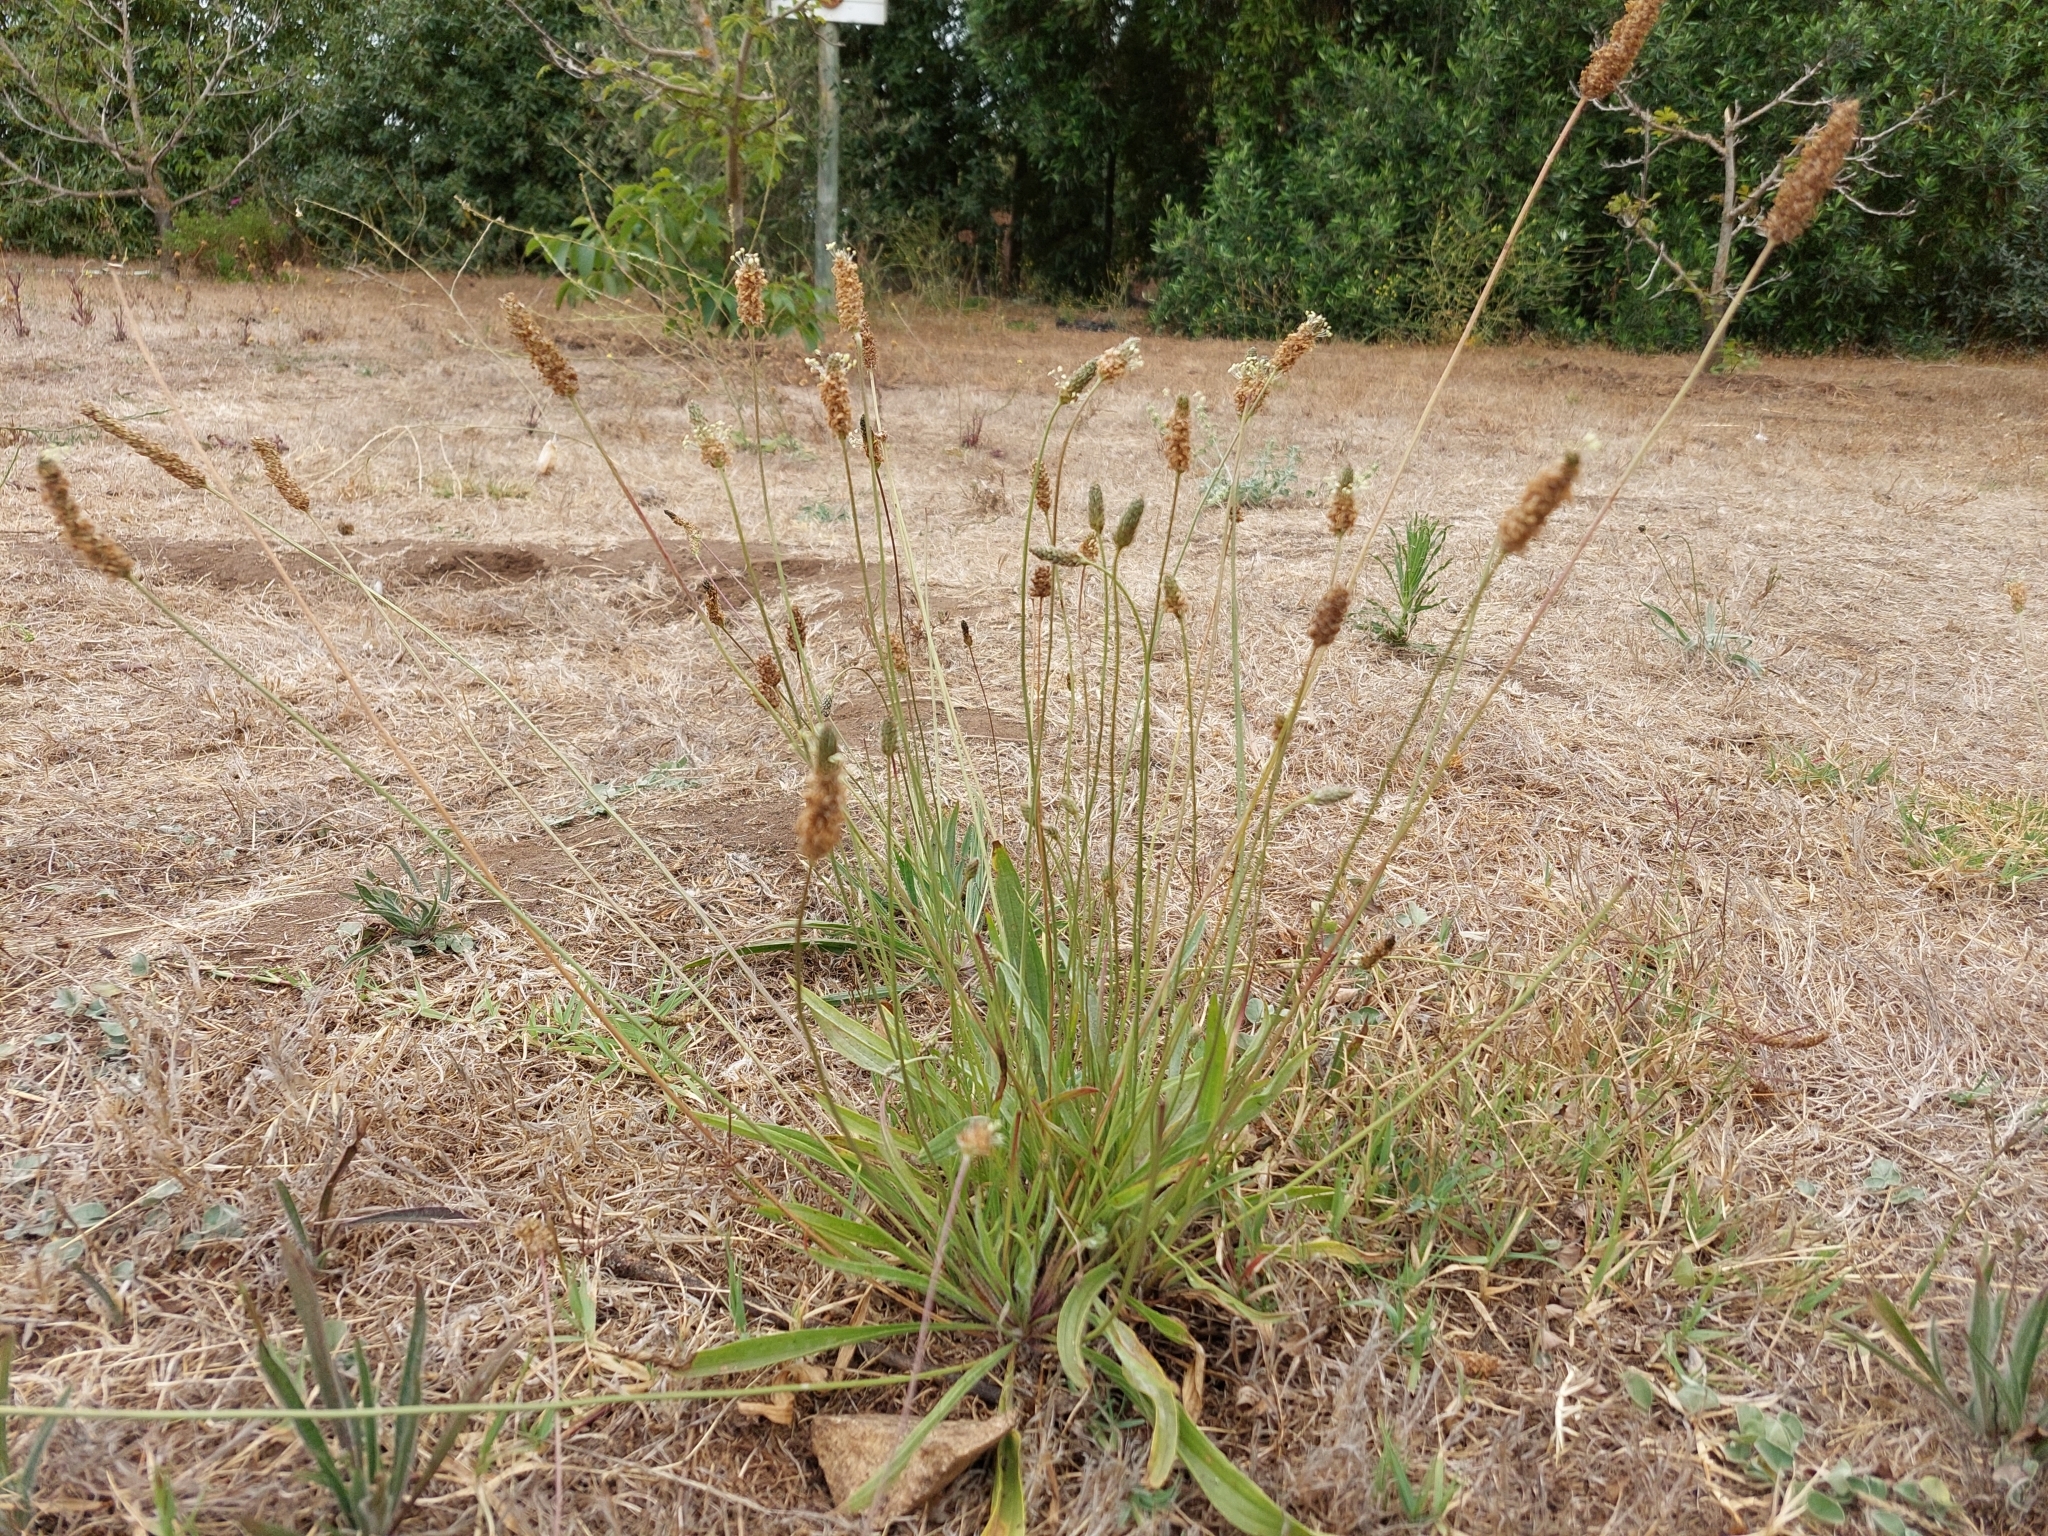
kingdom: Plantae
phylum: Tracheophyta
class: Magnoliopsida
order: Lamiales
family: Plantaginaceae
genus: Plantago
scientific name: Plantago lanceolata
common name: Ribwort plantain
